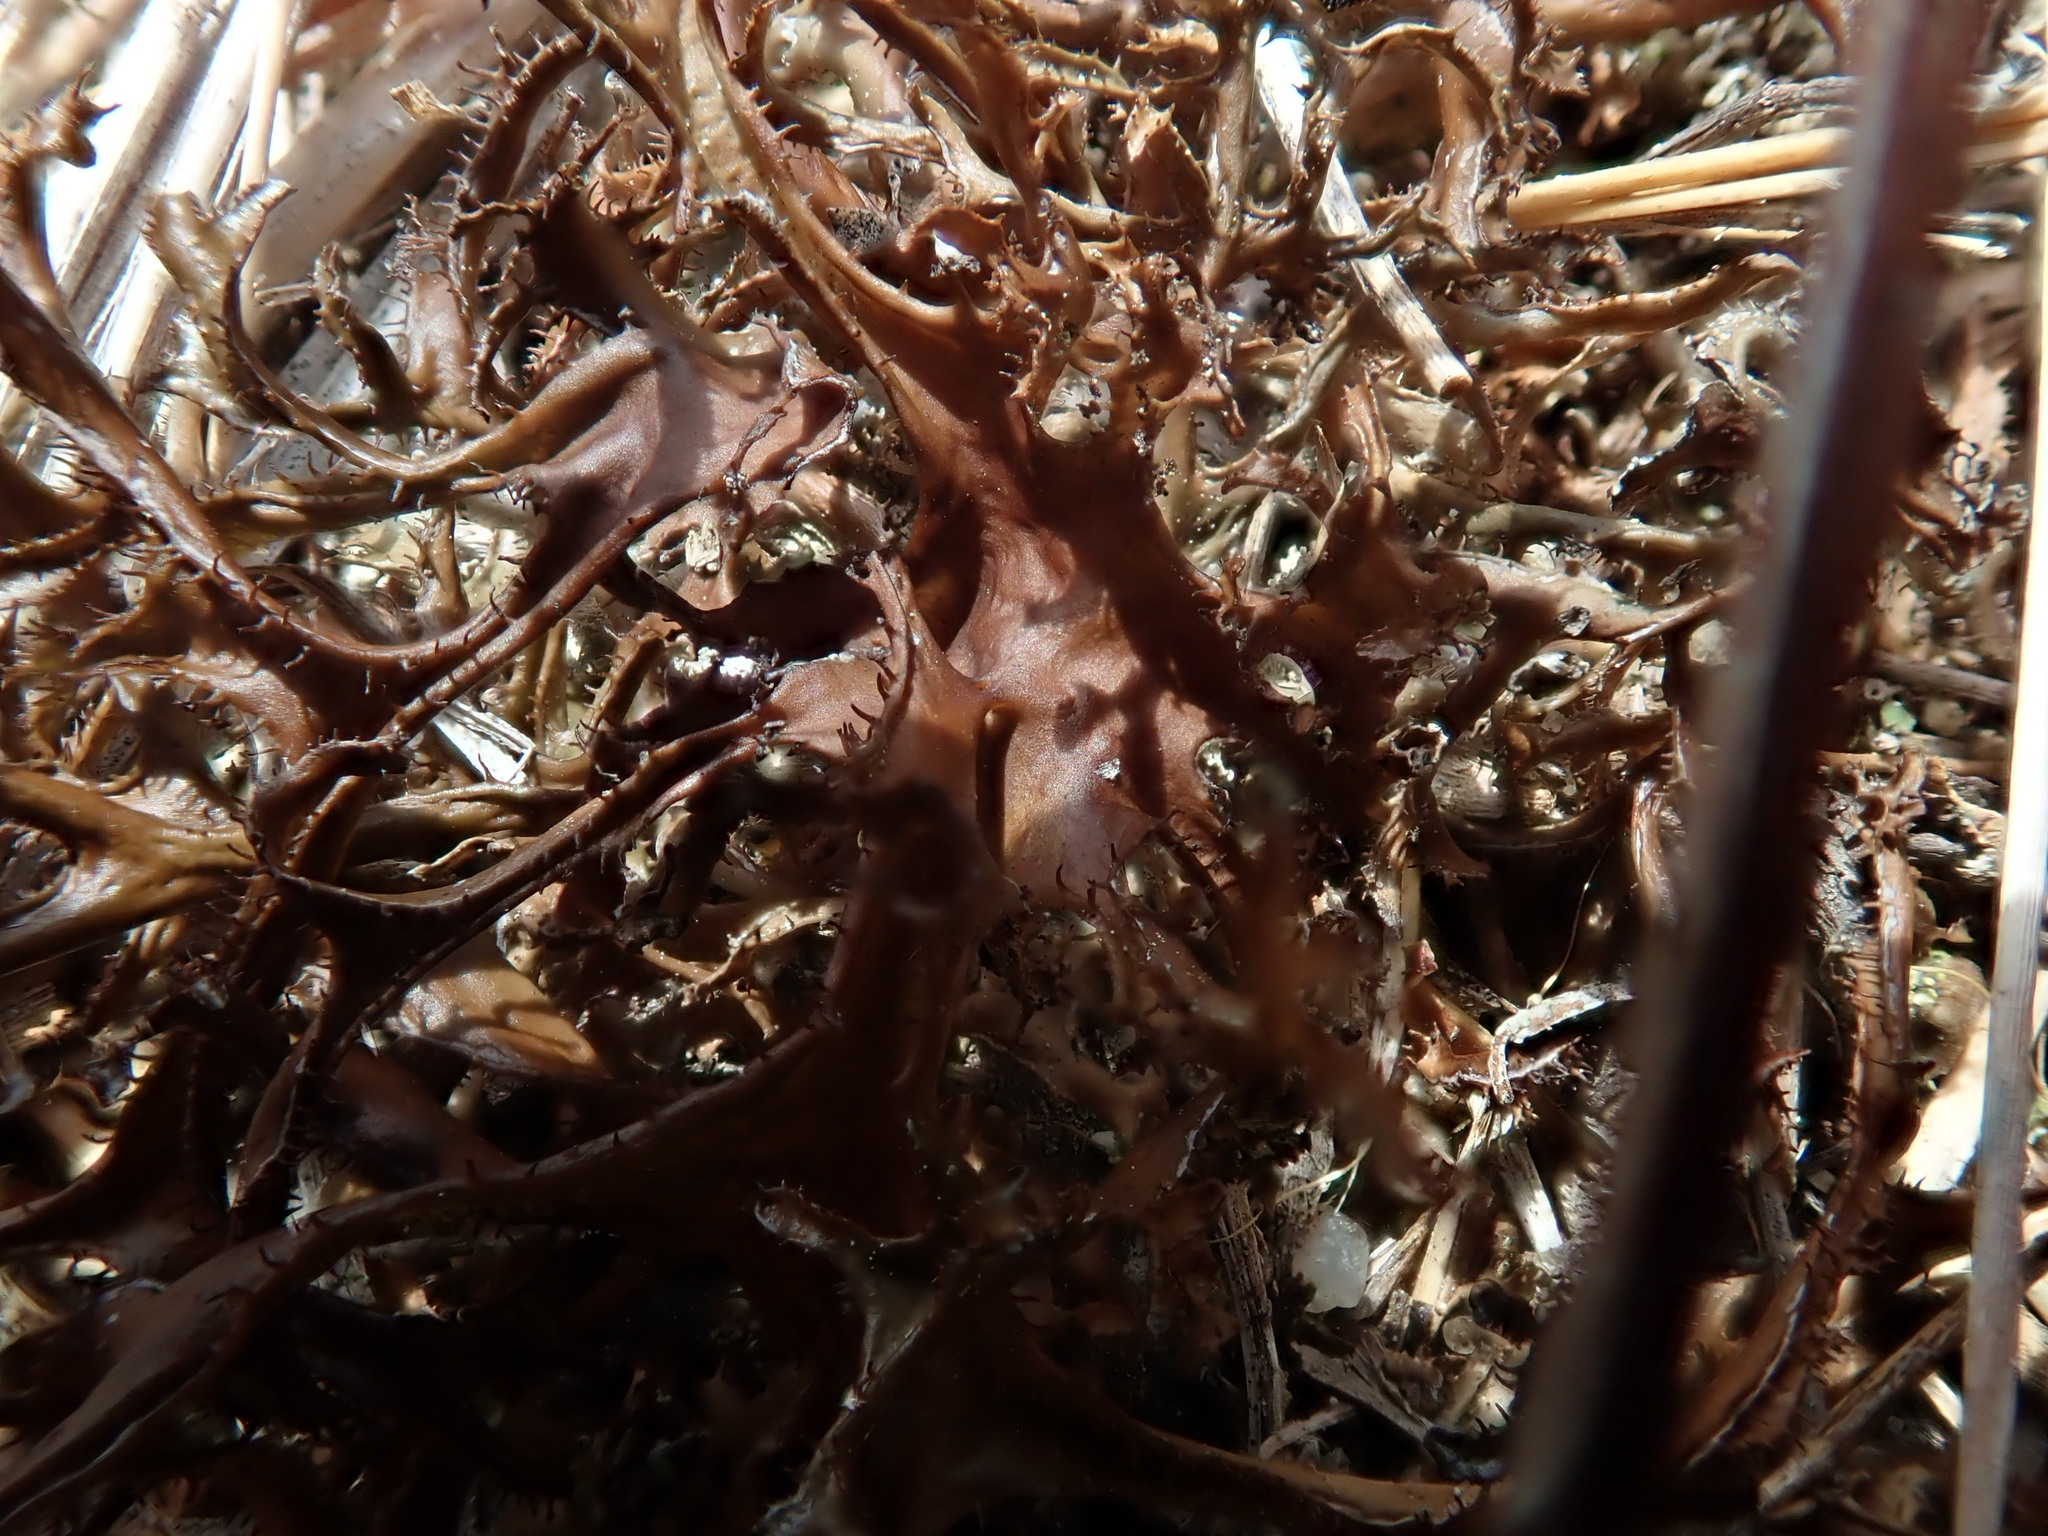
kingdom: Fungi
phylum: Ascomycota
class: Lecanoromycetes
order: Lecanorales
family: Parmeliaceae
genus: Cetraria
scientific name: Cetraria arenaria
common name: Sand-loving iceland lichen
